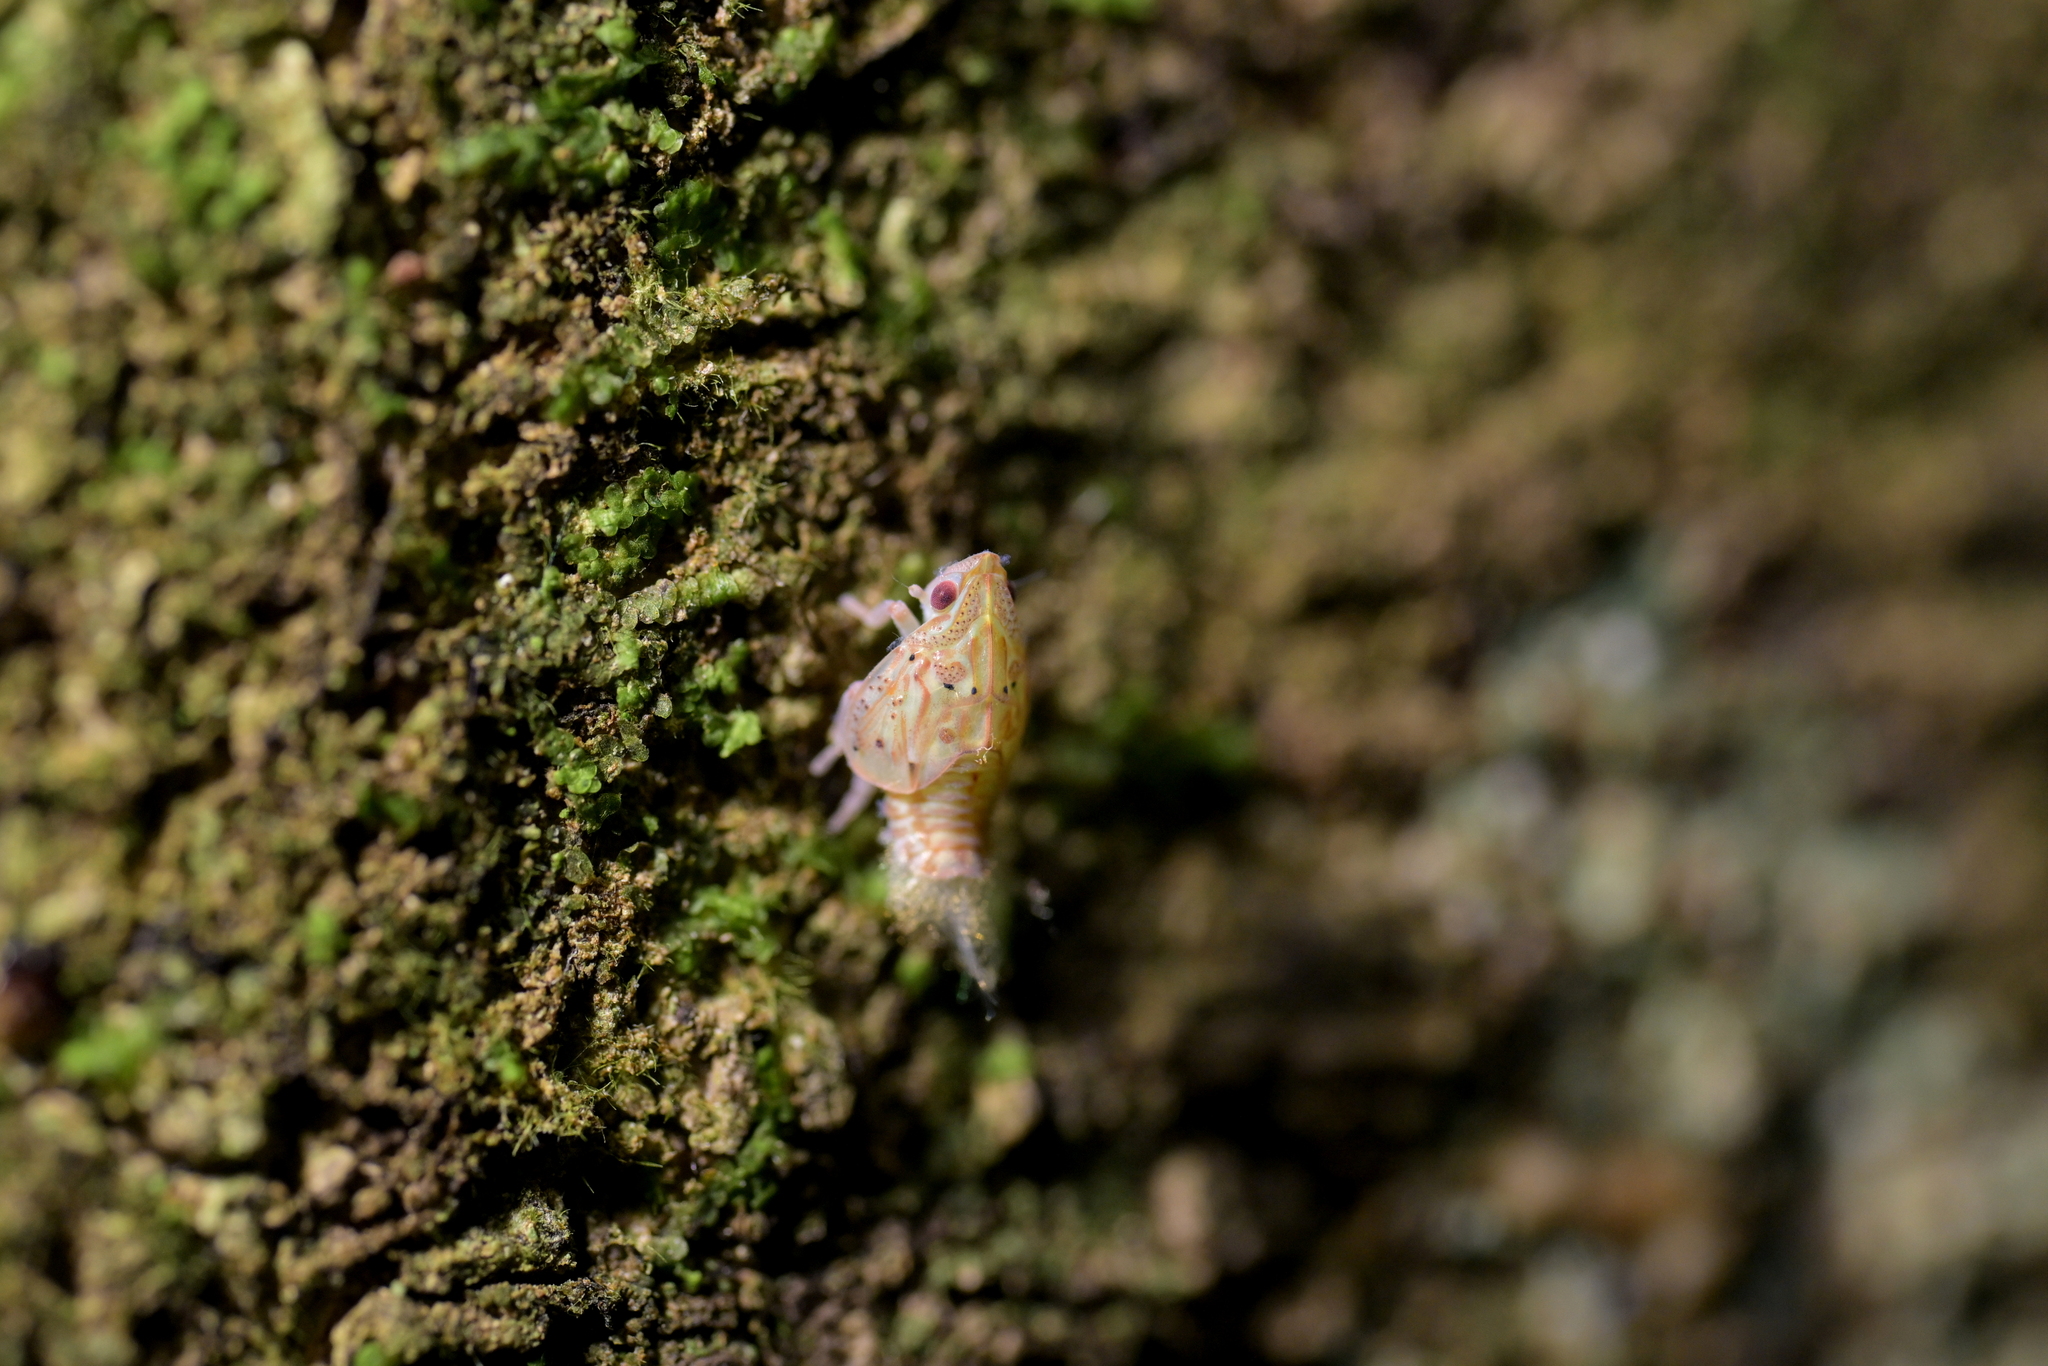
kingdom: Animalia
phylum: Arthropoda
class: Insecta
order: Hemiptera
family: Flatidae
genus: Siphanta
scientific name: Siphanta acuta
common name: Torpedo bug
